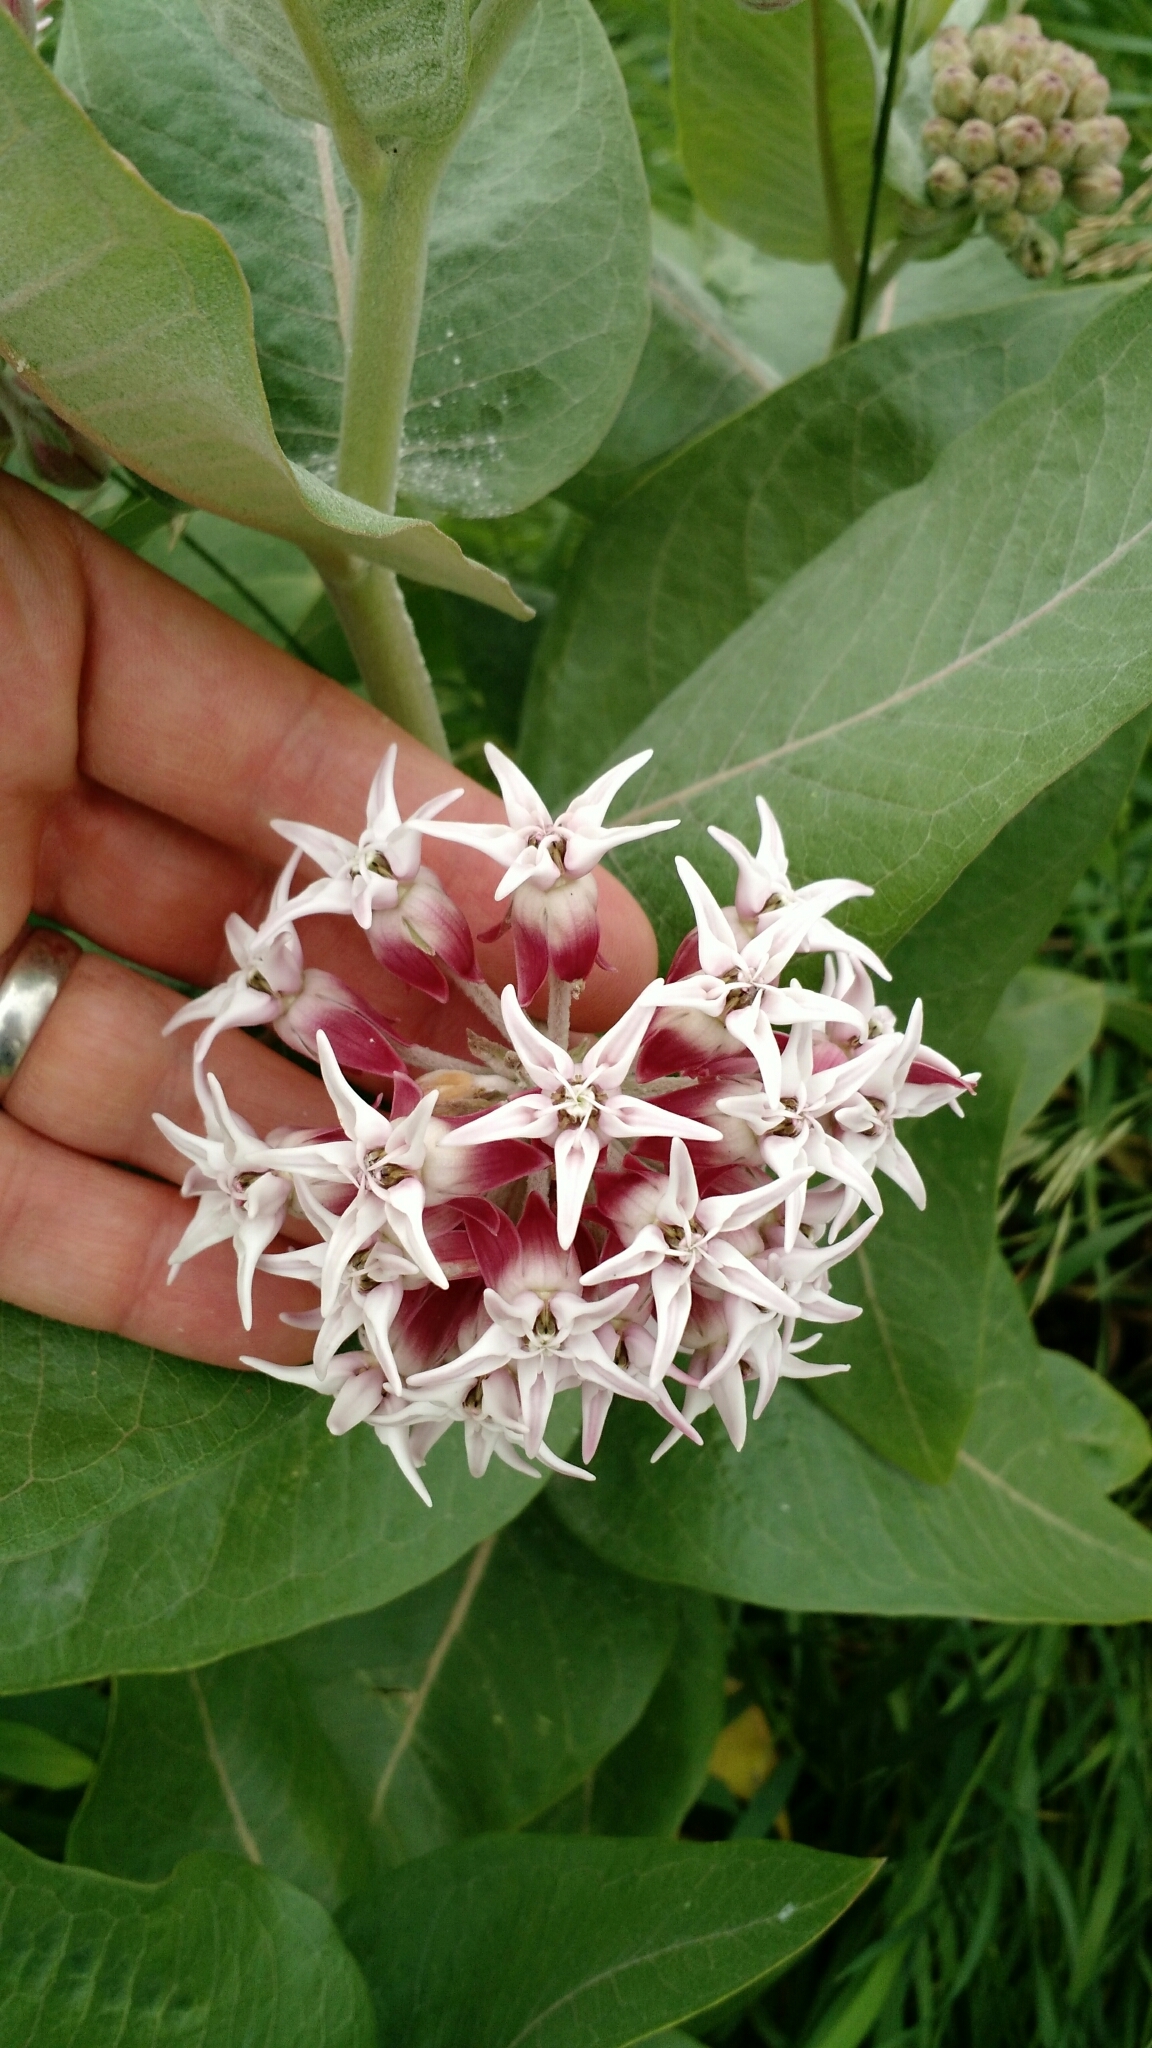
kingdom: Plantae
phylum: Tracheophyta
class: Magnoliopsida
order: Gentianales
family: Apocynaceae
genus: Asclepias
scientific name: Asclepias speciosa
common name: Showy milkweed
